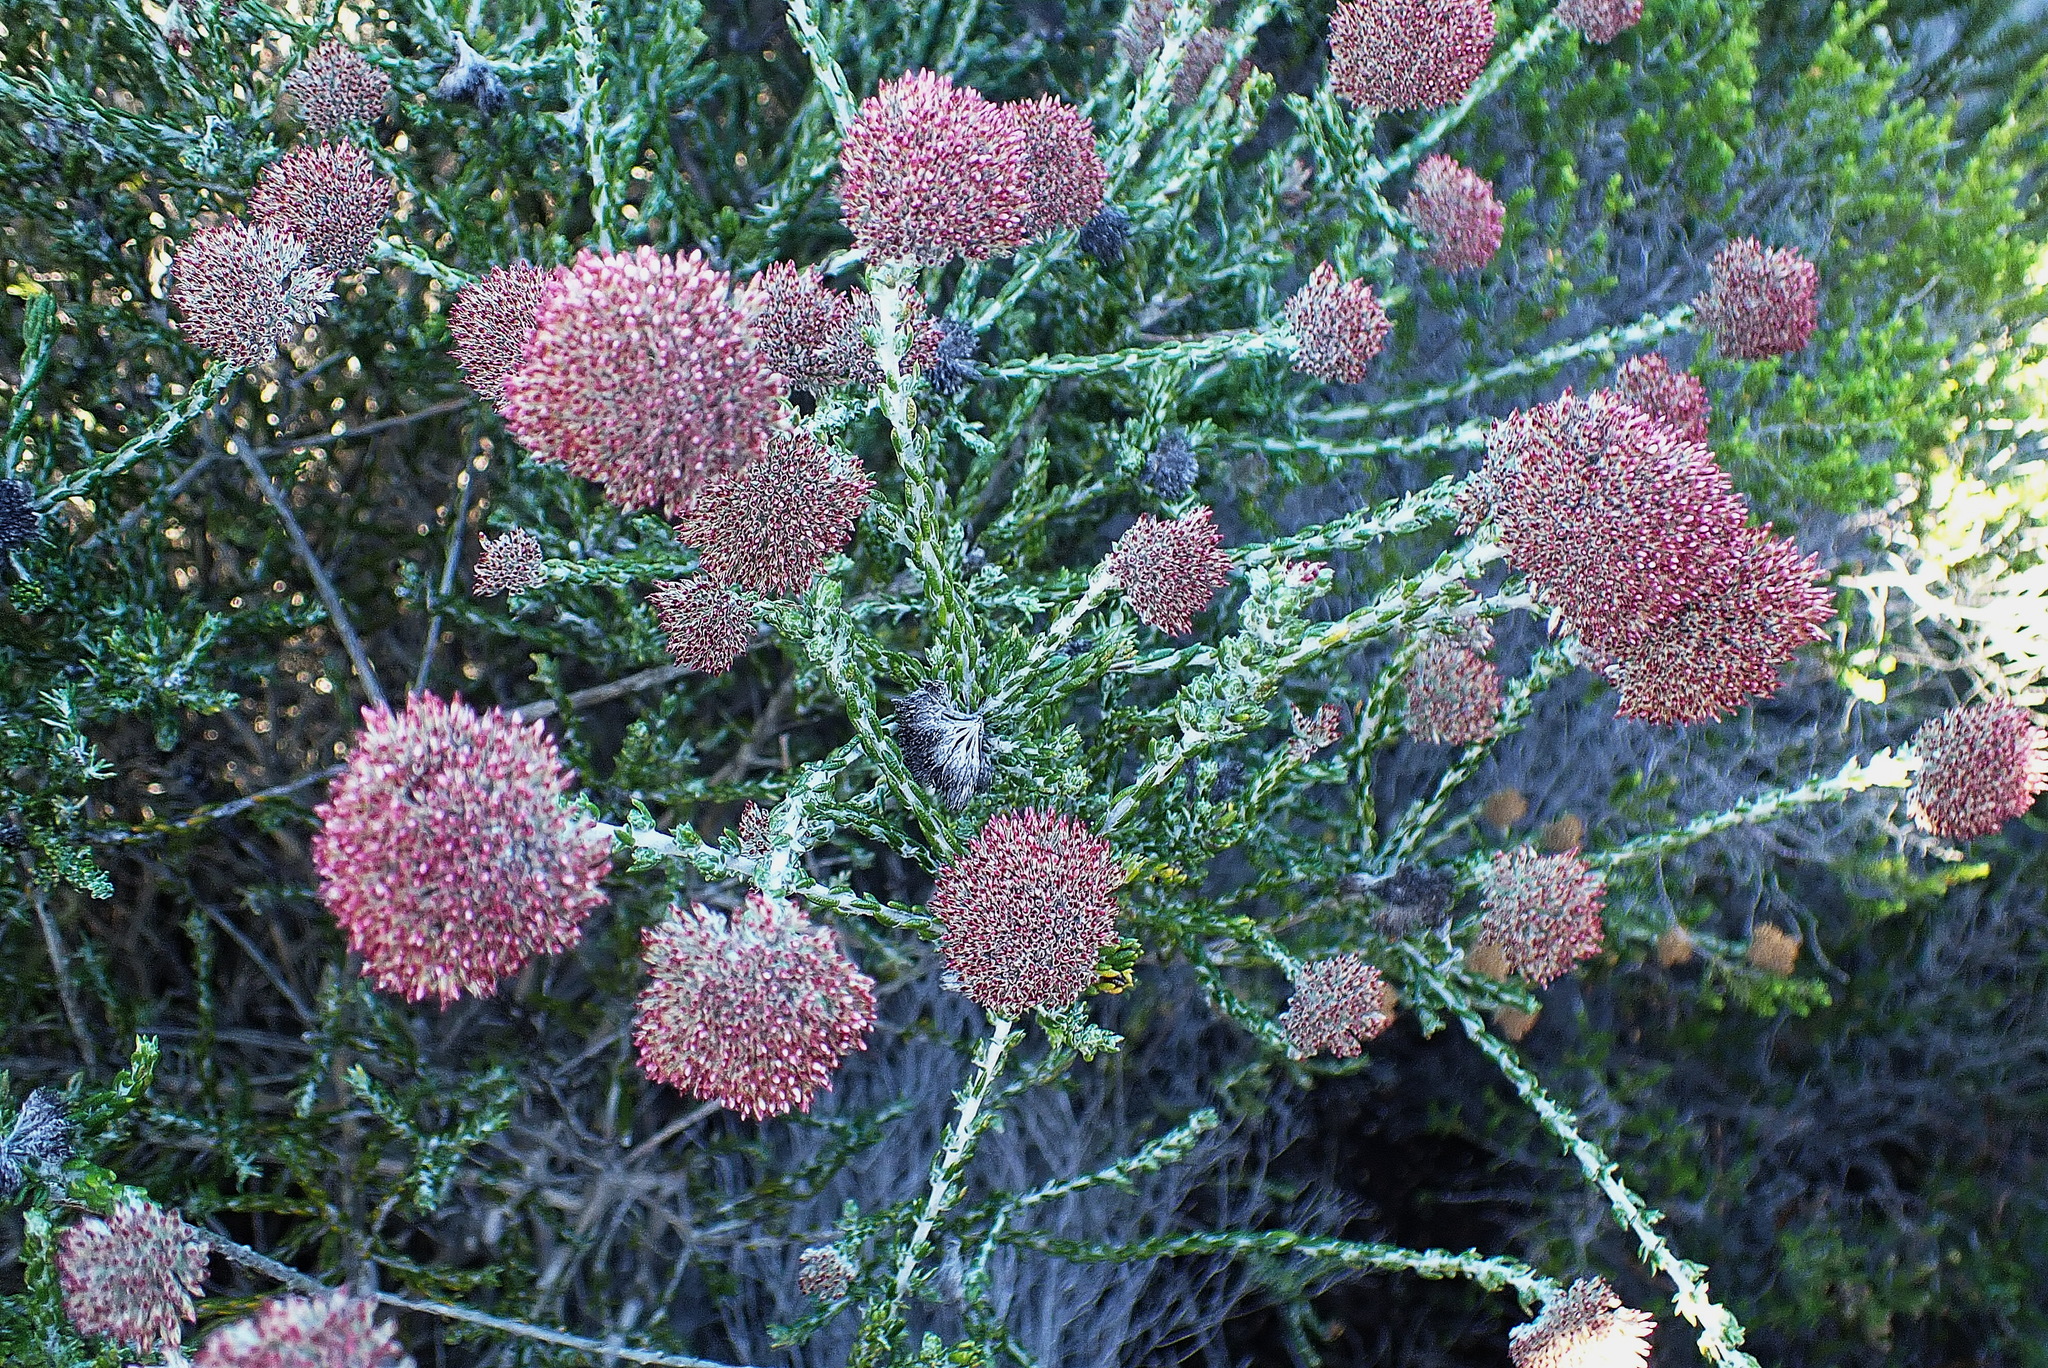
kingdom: Plantae
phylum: Tracheophyta
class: Magnoliopsida
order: Asterales
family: Asteraceae
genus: Metalasia
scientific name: Metalasia pungens
